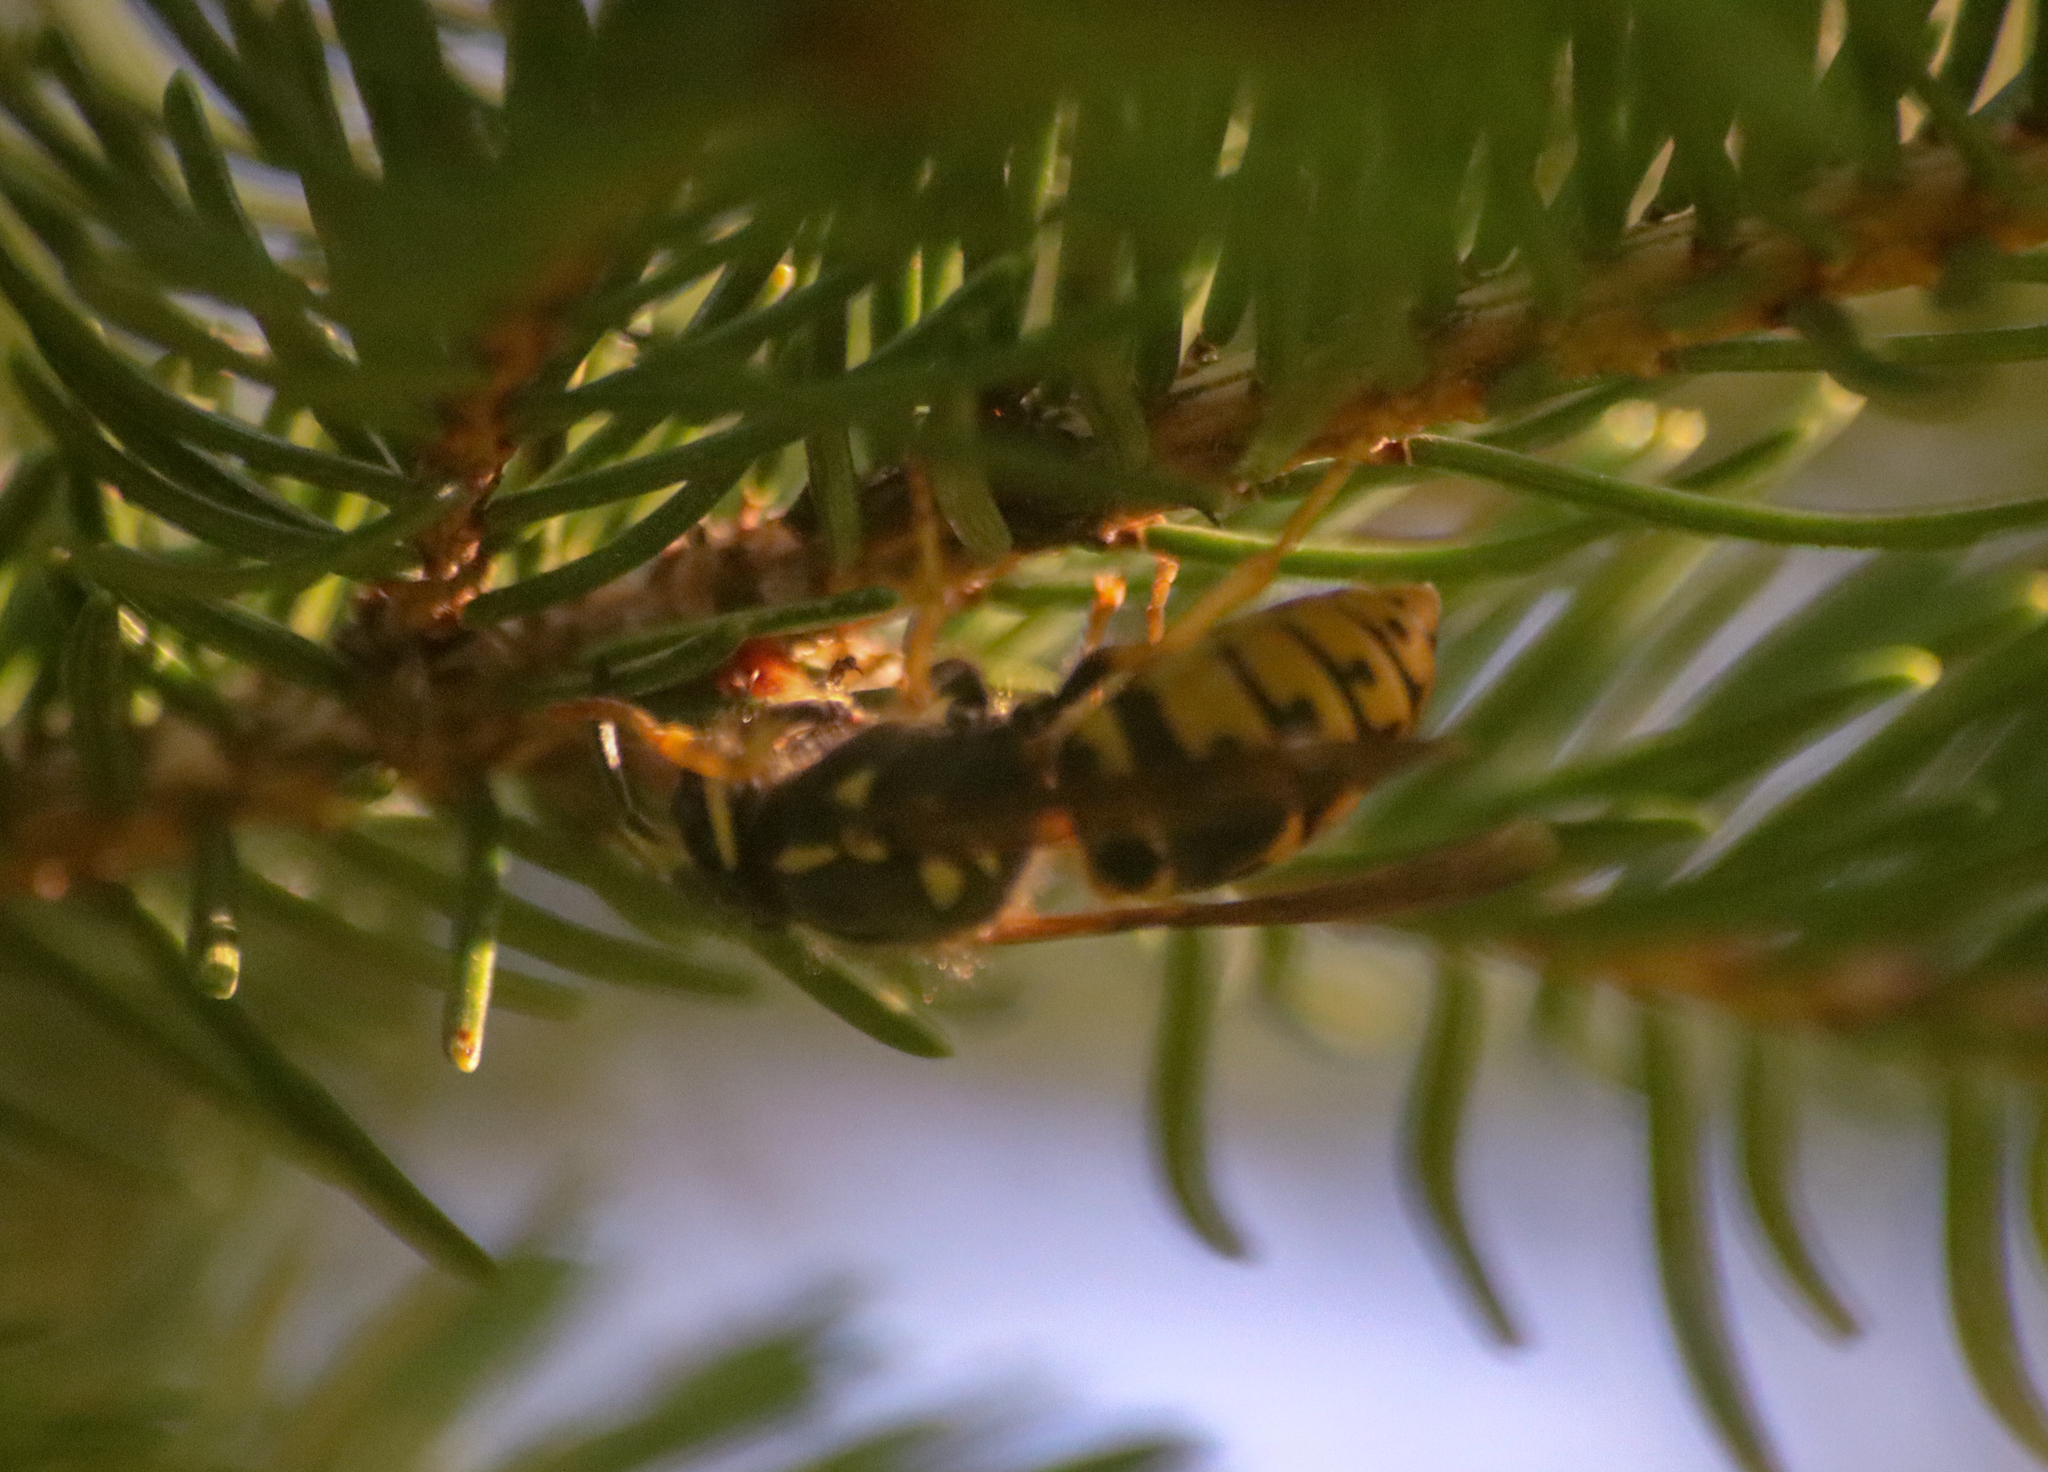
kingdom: Animalia
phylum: Arthropoda
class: Insecta
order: Hymenoptera
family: Vespidae
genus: Vespula
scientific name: Vespula
